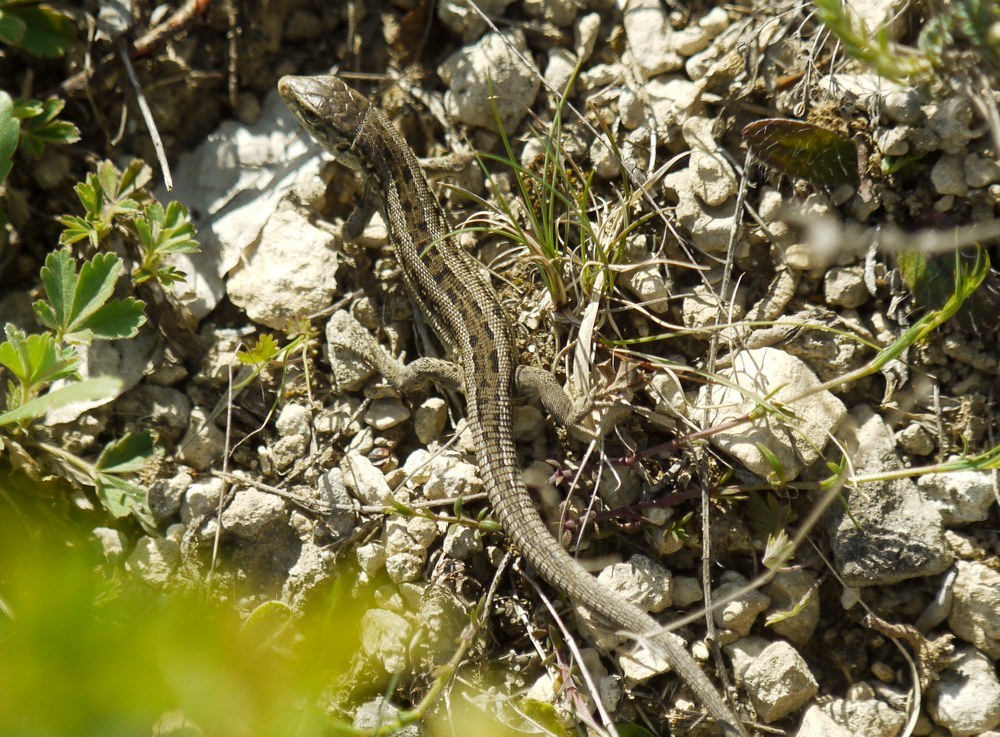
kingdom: Animalia
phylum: Chordata
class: Squamata
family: Lacertidae
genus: Lacerta
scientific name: Lacerta agilis
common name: Sand lizard
